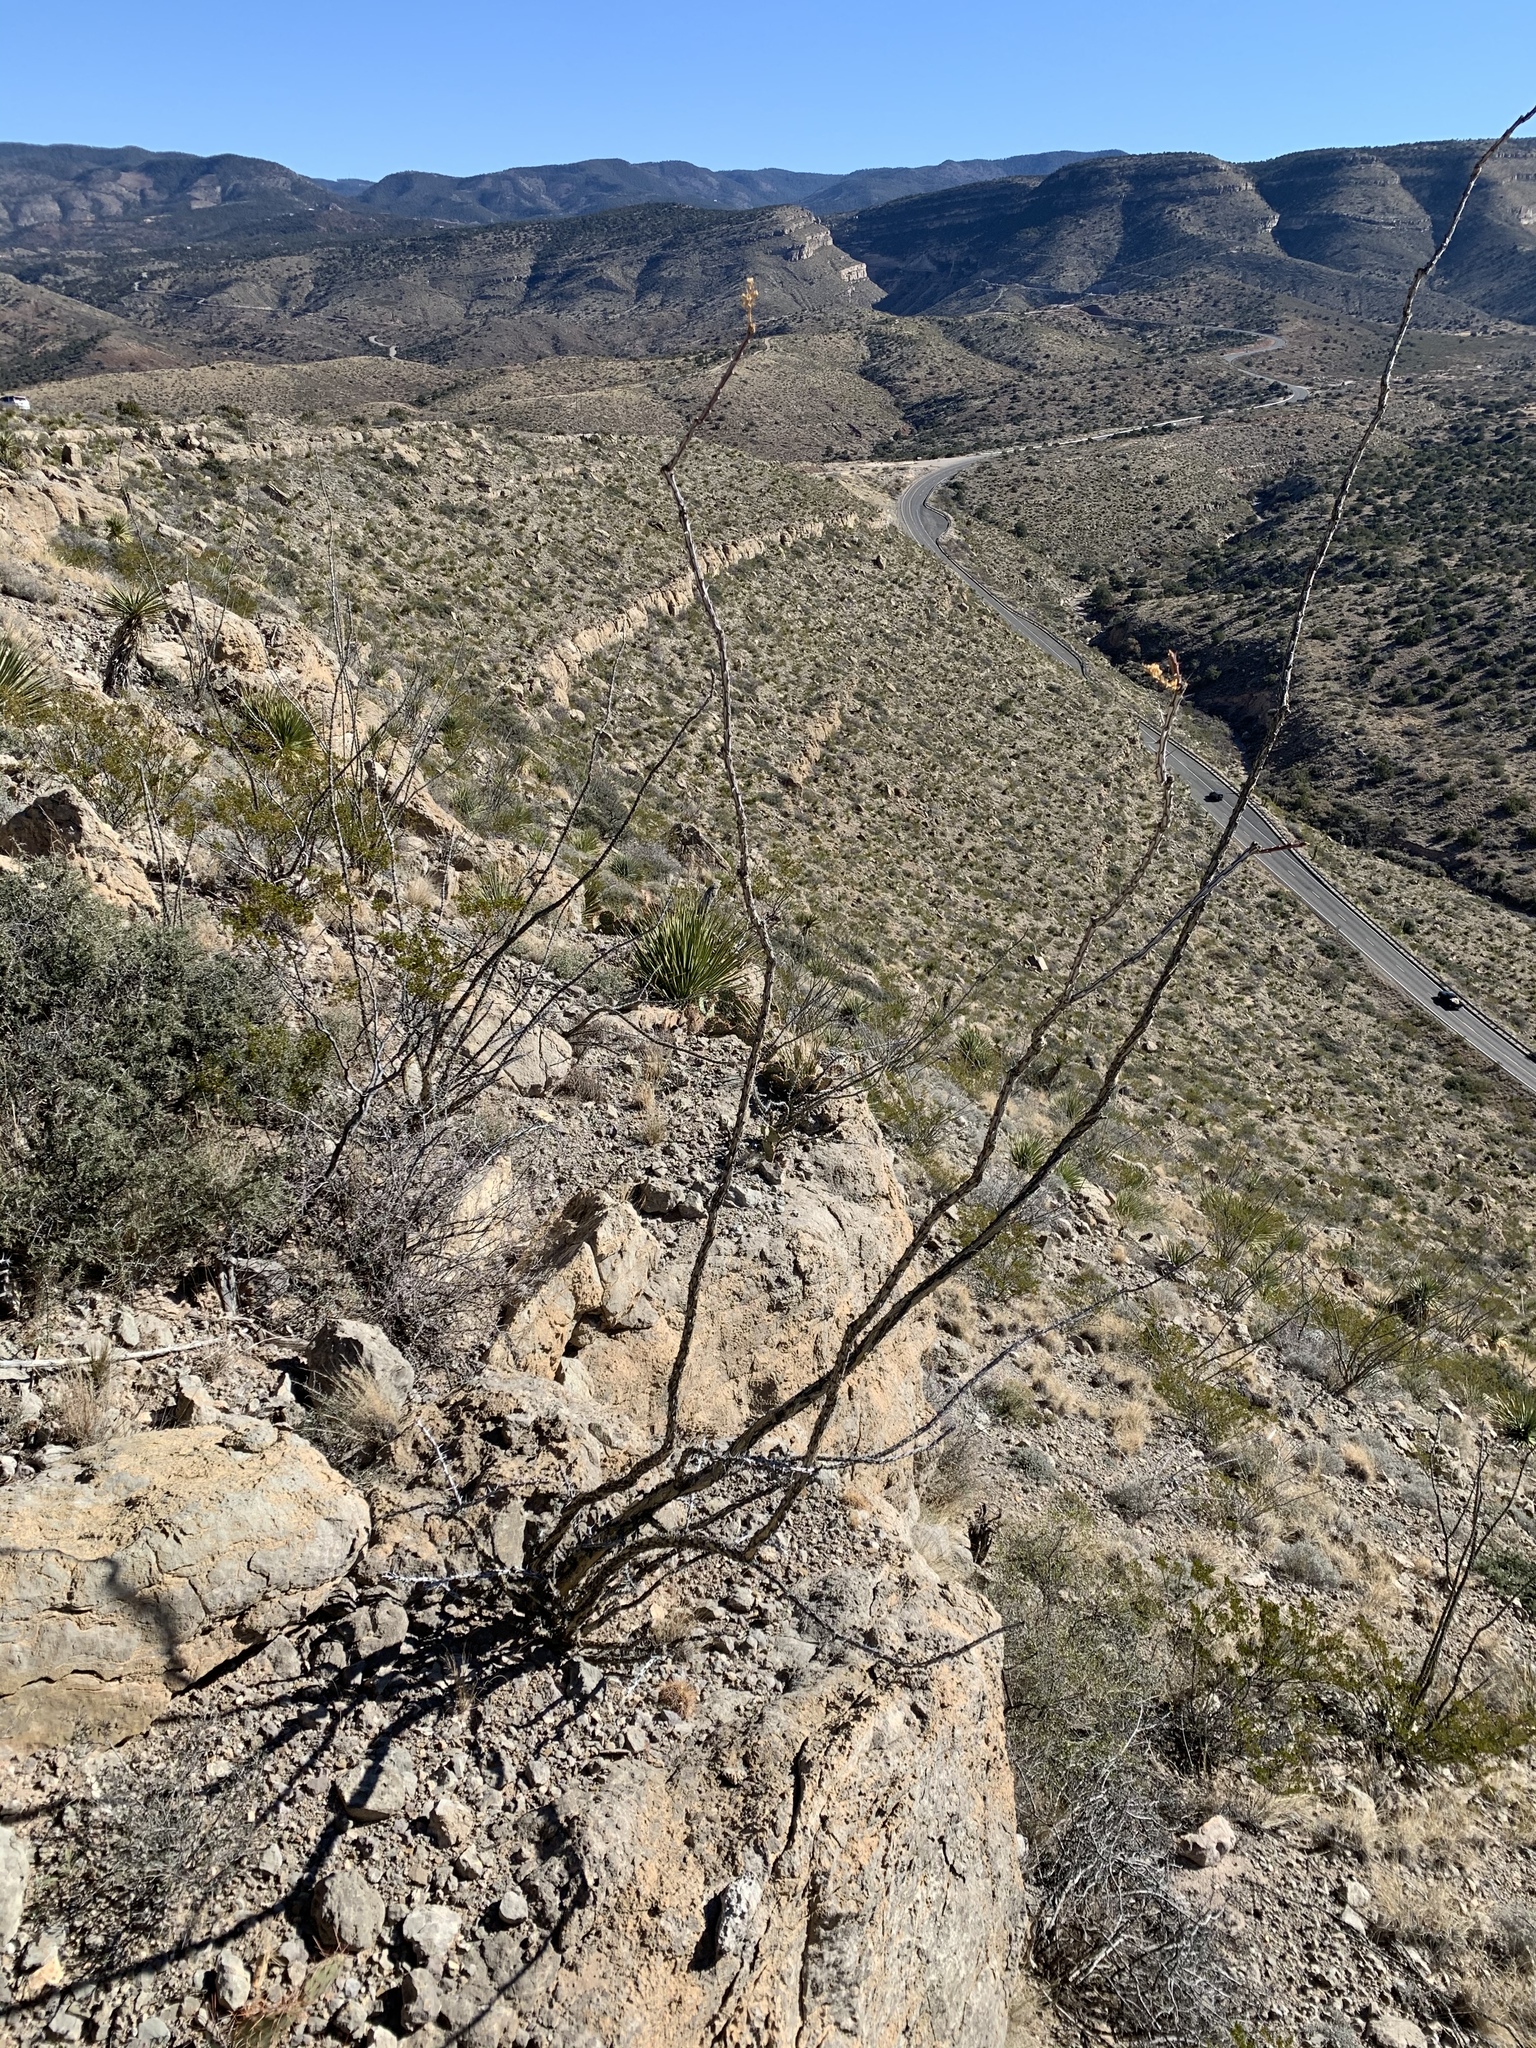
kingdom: Plantae
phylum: Tracheophyta
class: Magnoliopsida
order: Ericales
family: Fouquieriaceae
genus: Fouquieria
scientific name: Fouquieria splendens
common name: Vine-cactus
